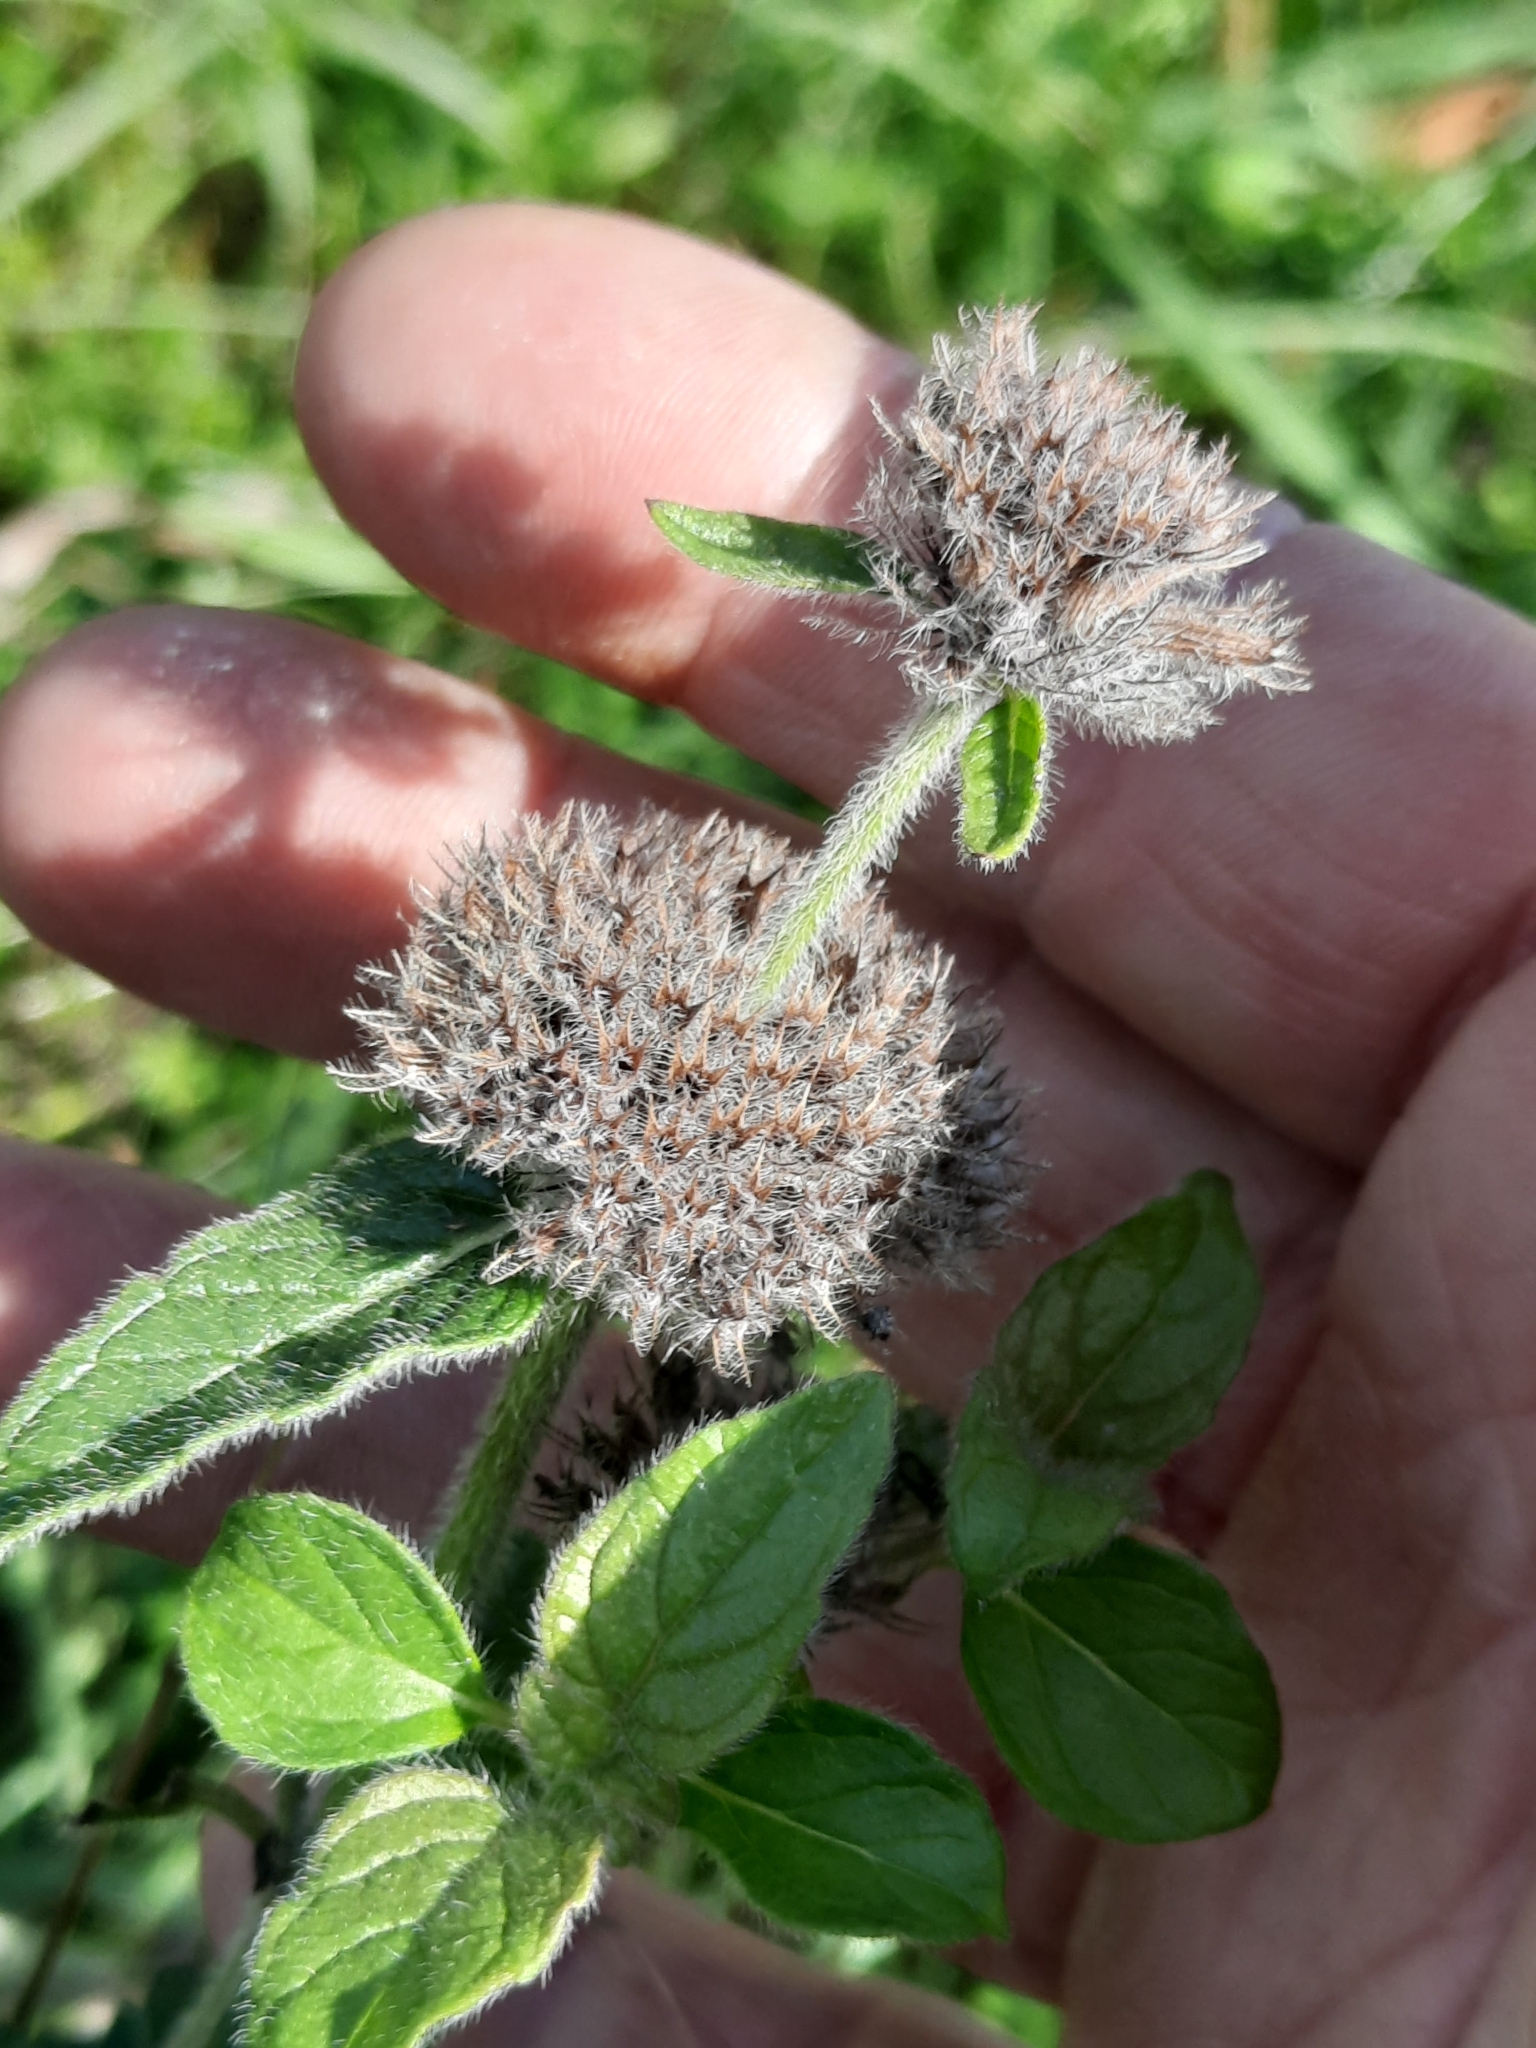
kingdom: Plantae
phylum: Tracheophyta
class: Magnoliopsida
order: Lamiales
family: Lamiaceae
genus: Clinopodium
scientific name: Clinopodium vulgare
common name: Wild basil
